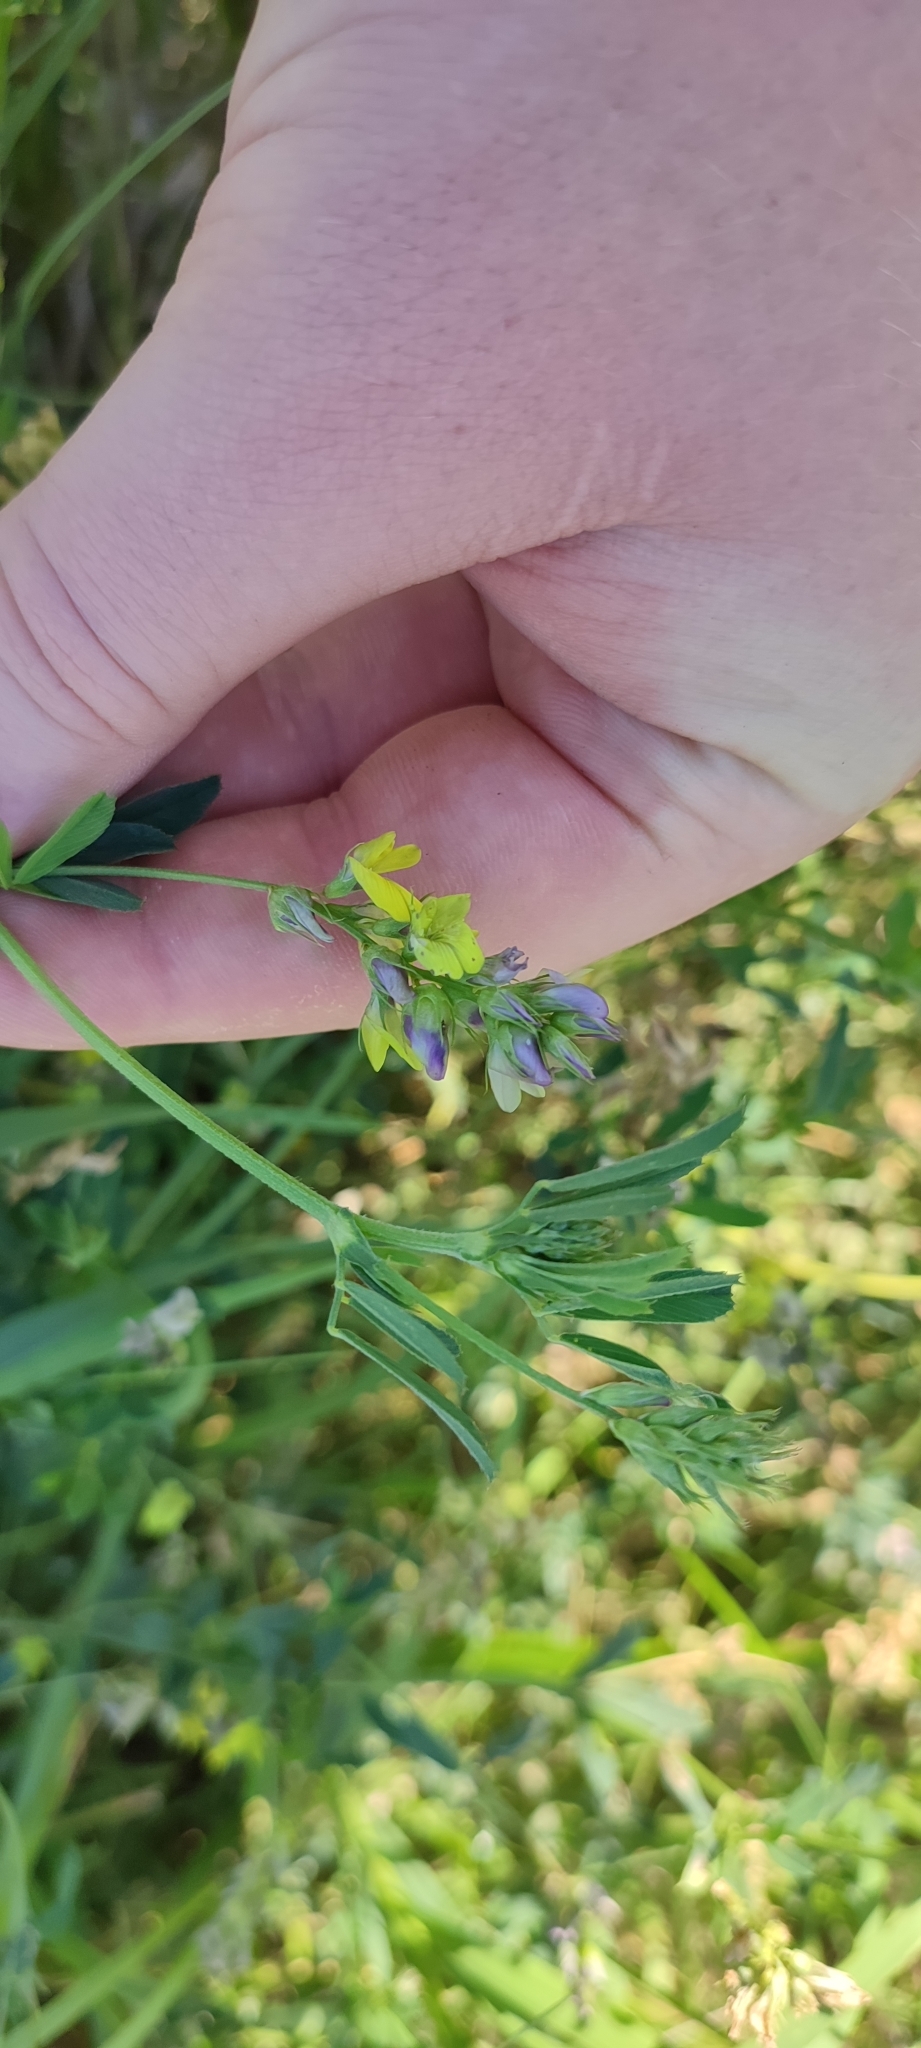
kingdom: Plantae
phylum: Tracheophyta
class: Magnoliopsida
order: Fabales
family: Fabaceae
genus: Medicago
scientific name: Medicago varia
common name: Sand lucerne
